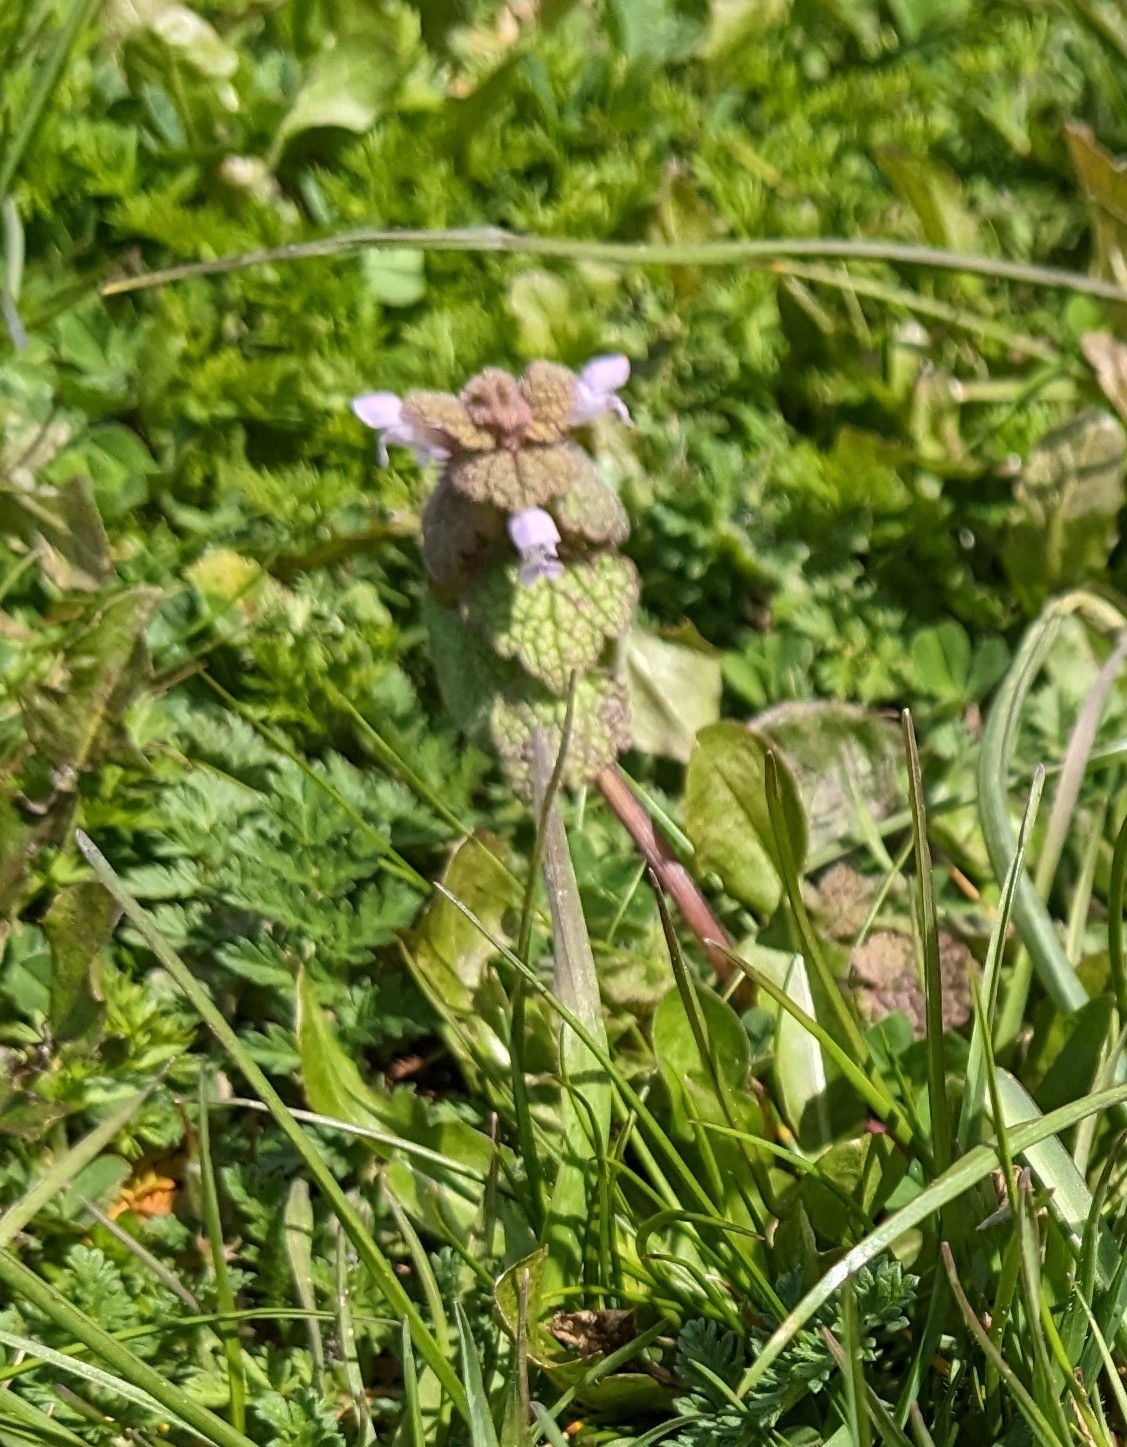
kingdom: Plantae
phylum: Tracheophyta
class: Magnoliopsida
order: Lamiales
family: Lamiaceae
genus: Lamium
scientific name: Lamium purpureum
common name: Red dead-nettle
